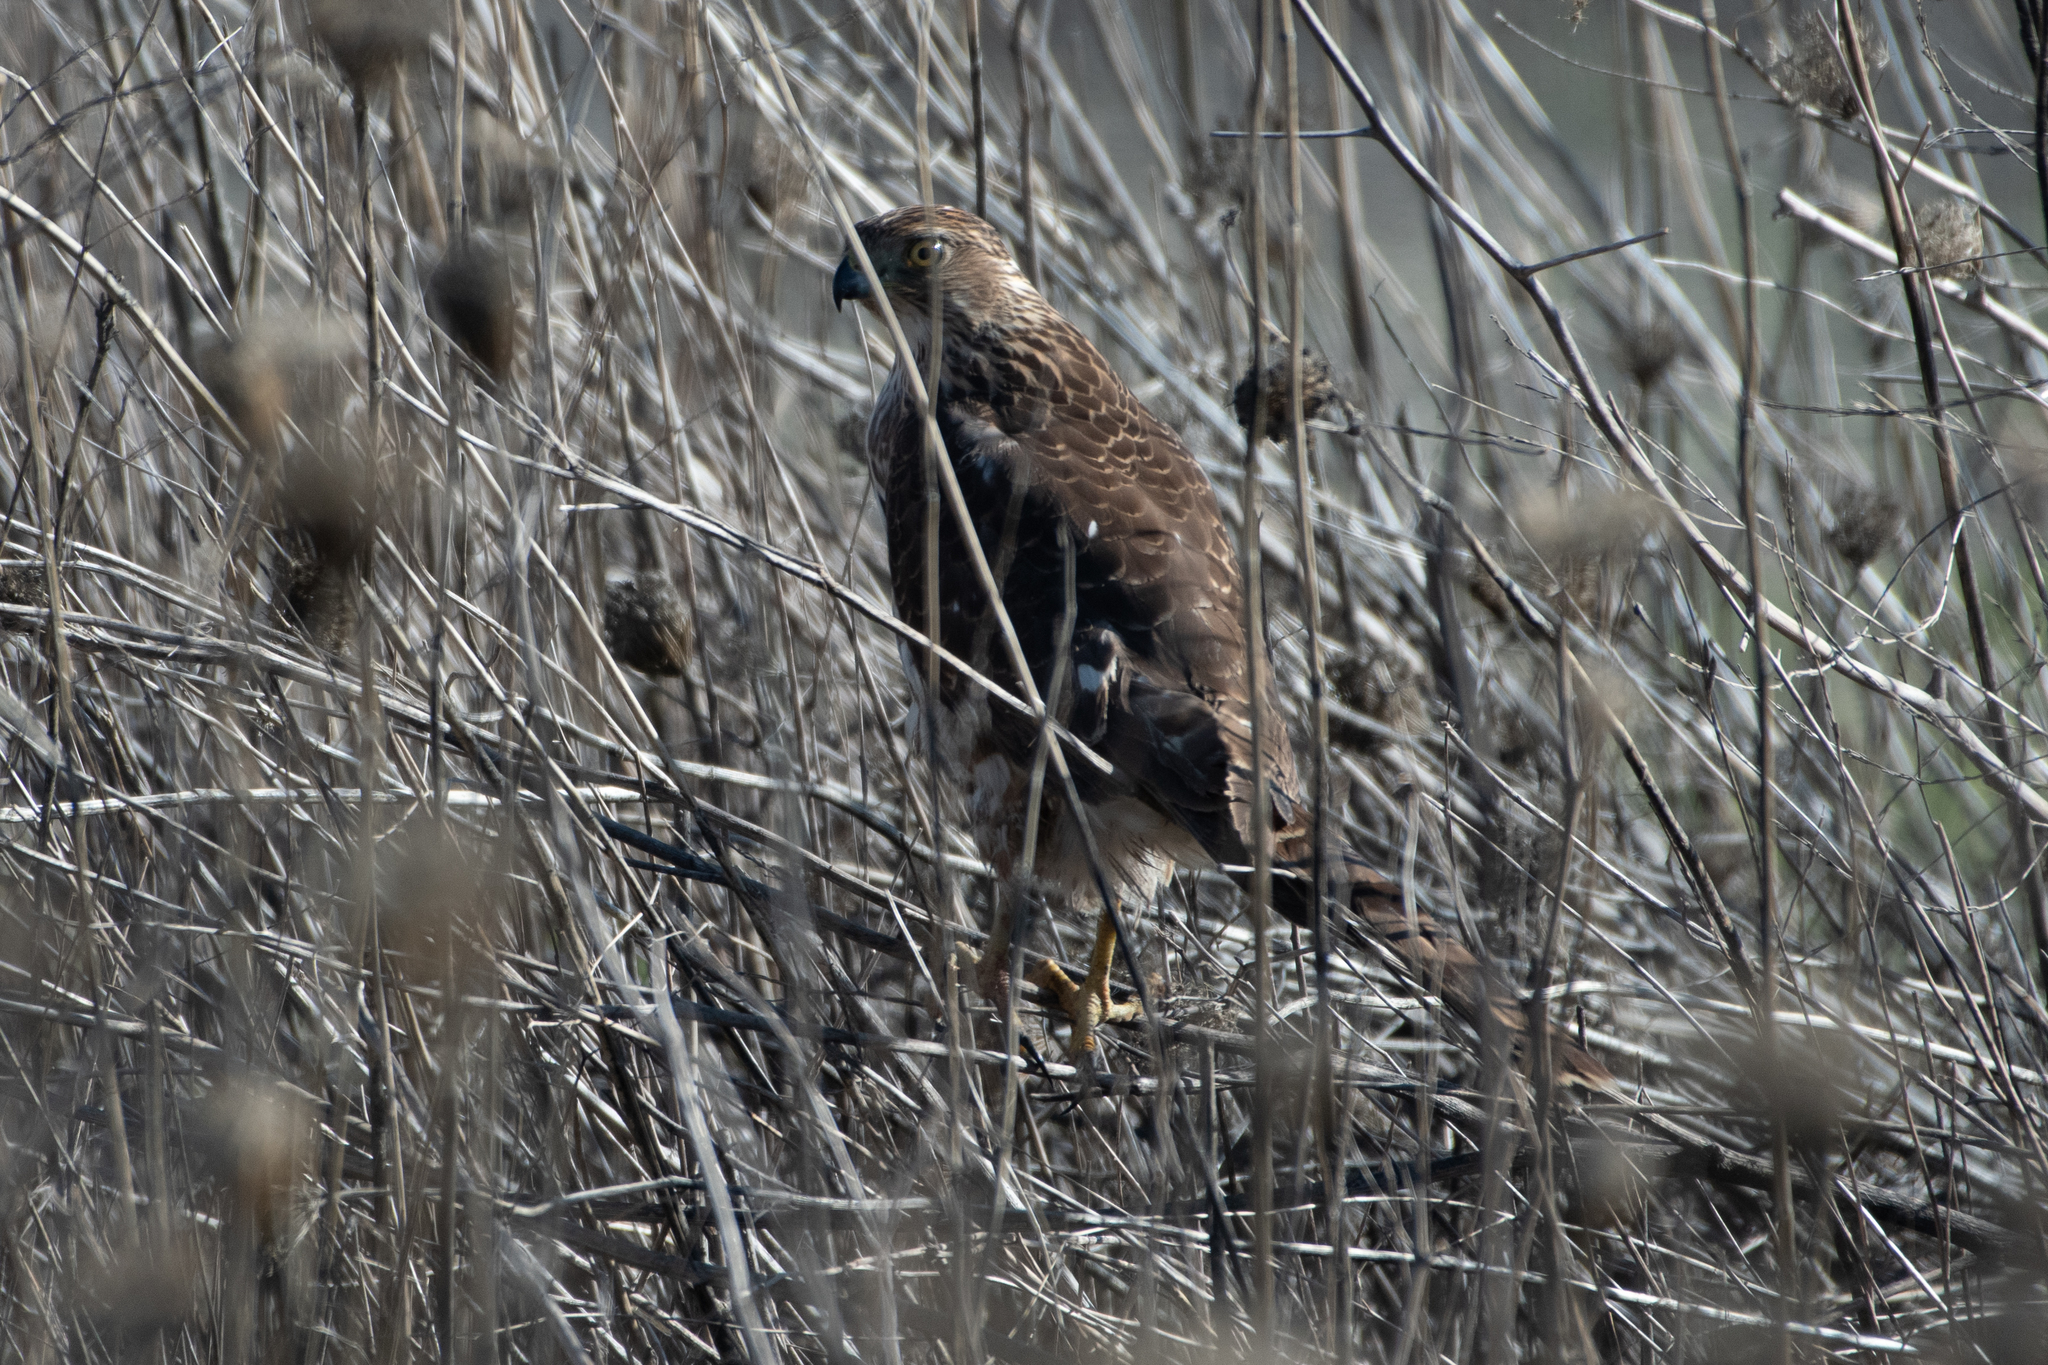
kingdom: Animalia
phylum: Chordata
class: Aves
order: Accipitriformes
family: Accipitridae
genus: Accipiter
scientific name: Accipiter cooperii
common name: Cooper's hawk
